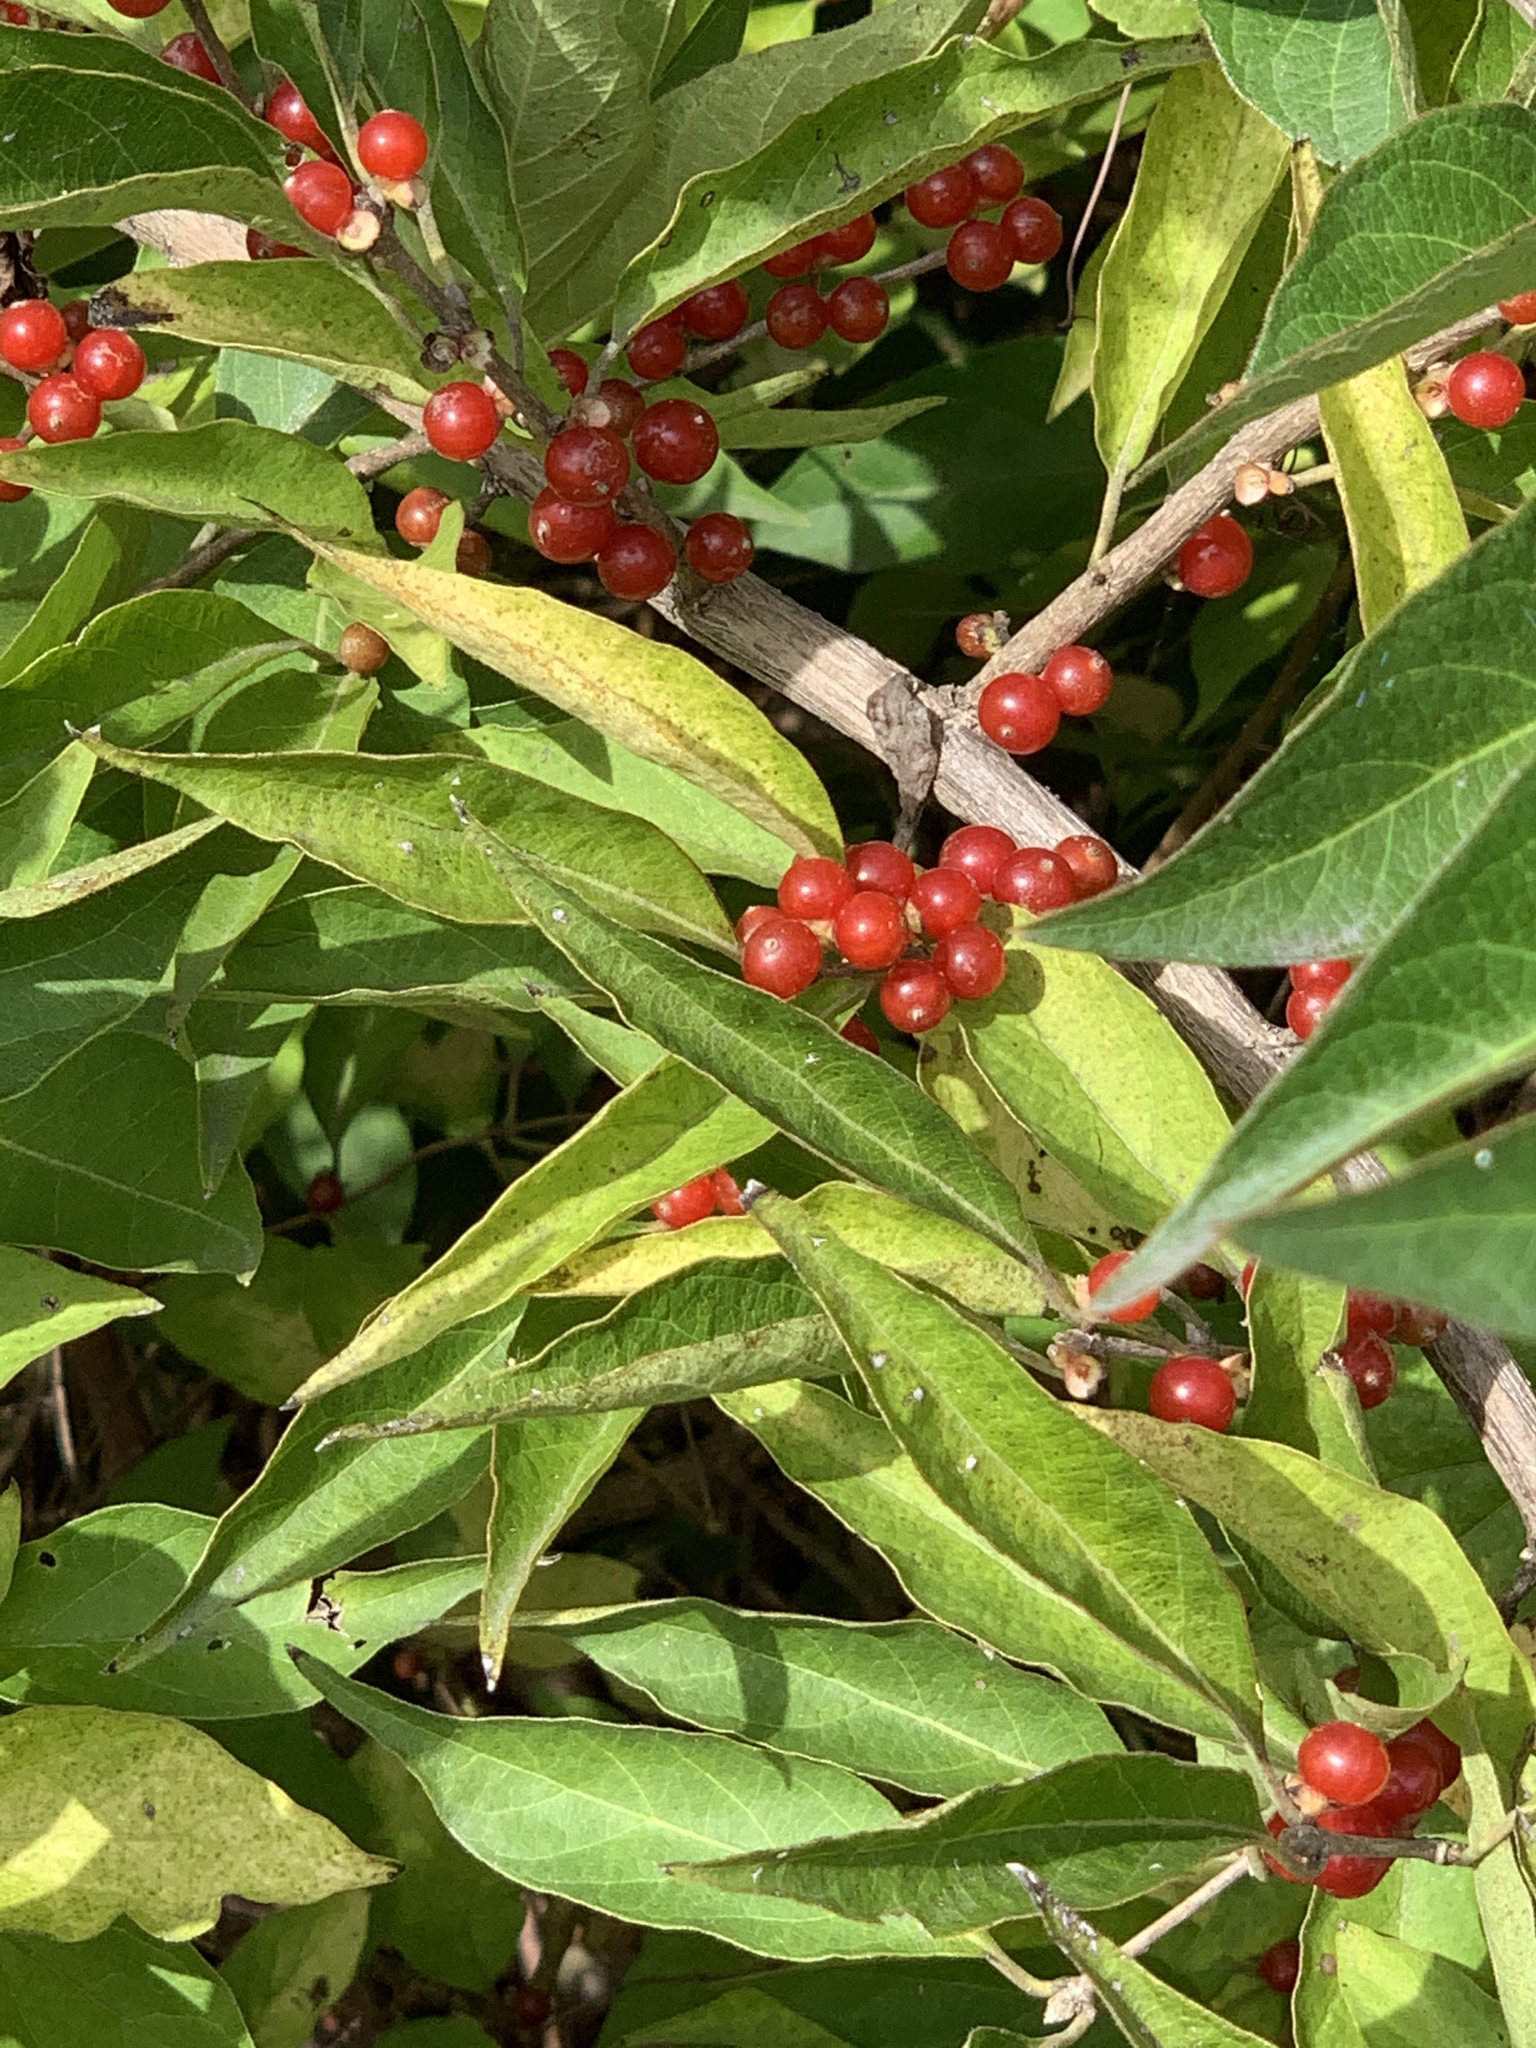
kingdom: Plantae
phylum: Tracheophyta
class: Magnoliopsida
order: Dipsacales
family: Caprifoliaceae
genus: Lonicera
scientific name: Lonicera maackii
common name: Amur honeysuckle
